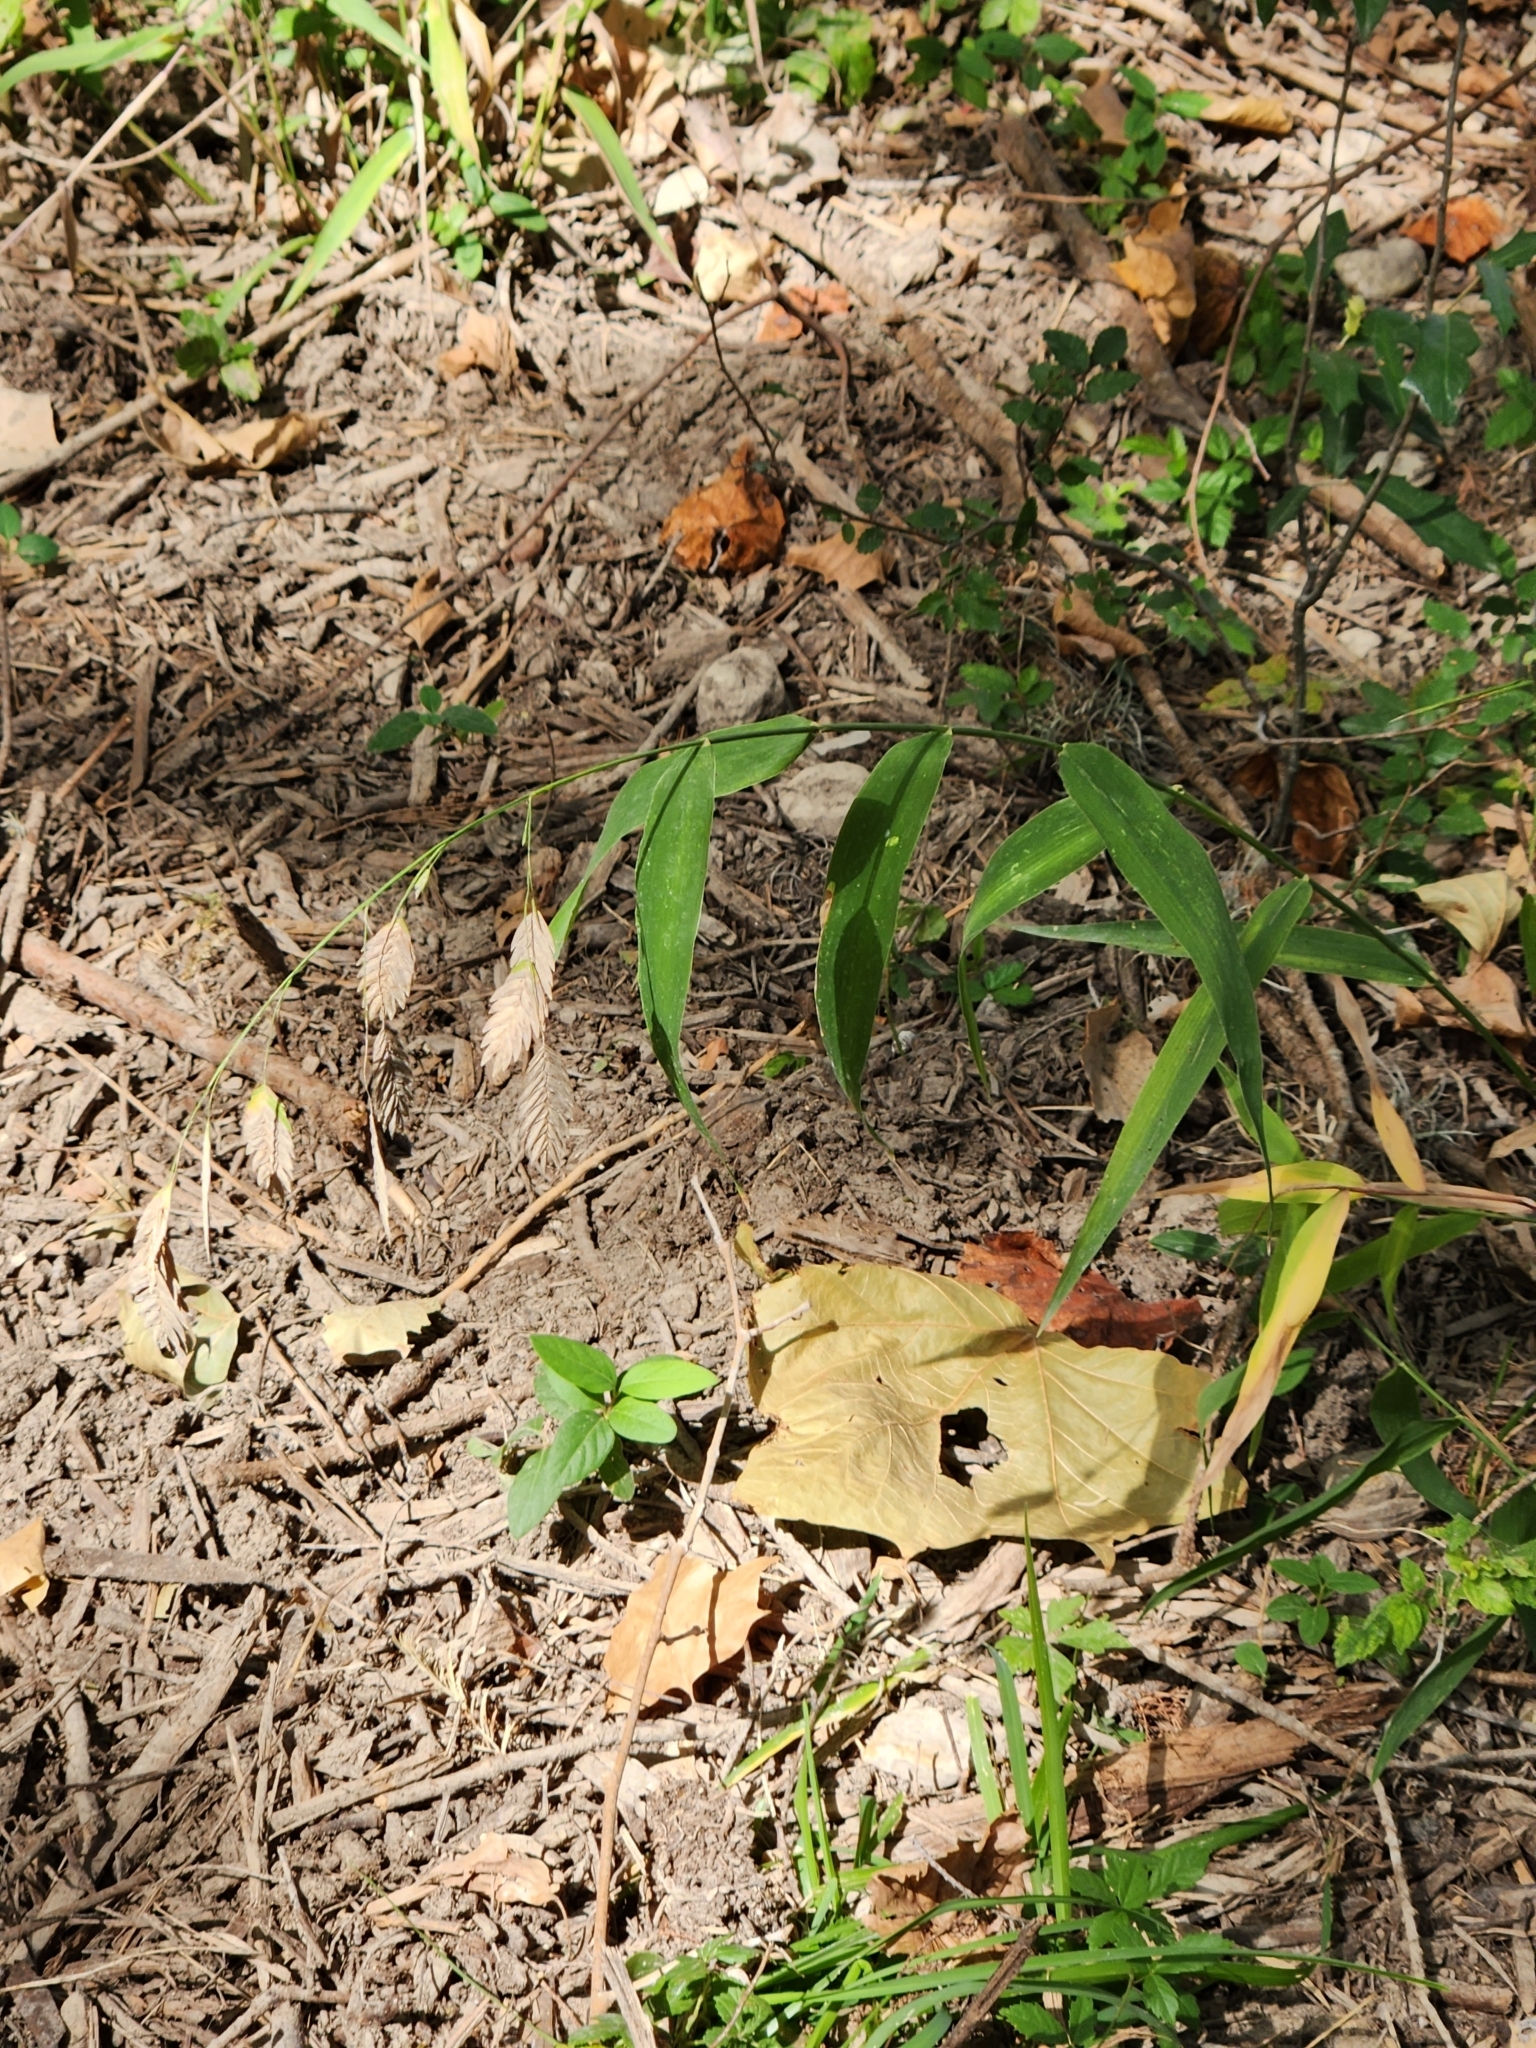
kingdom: Plantae
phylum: Tracheophyta
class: Liliopsida
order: Poales
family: Poaceae
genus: Chasmanthium
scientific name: Chasmanthium latifolium
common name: Broad-leaved chasmanthium
